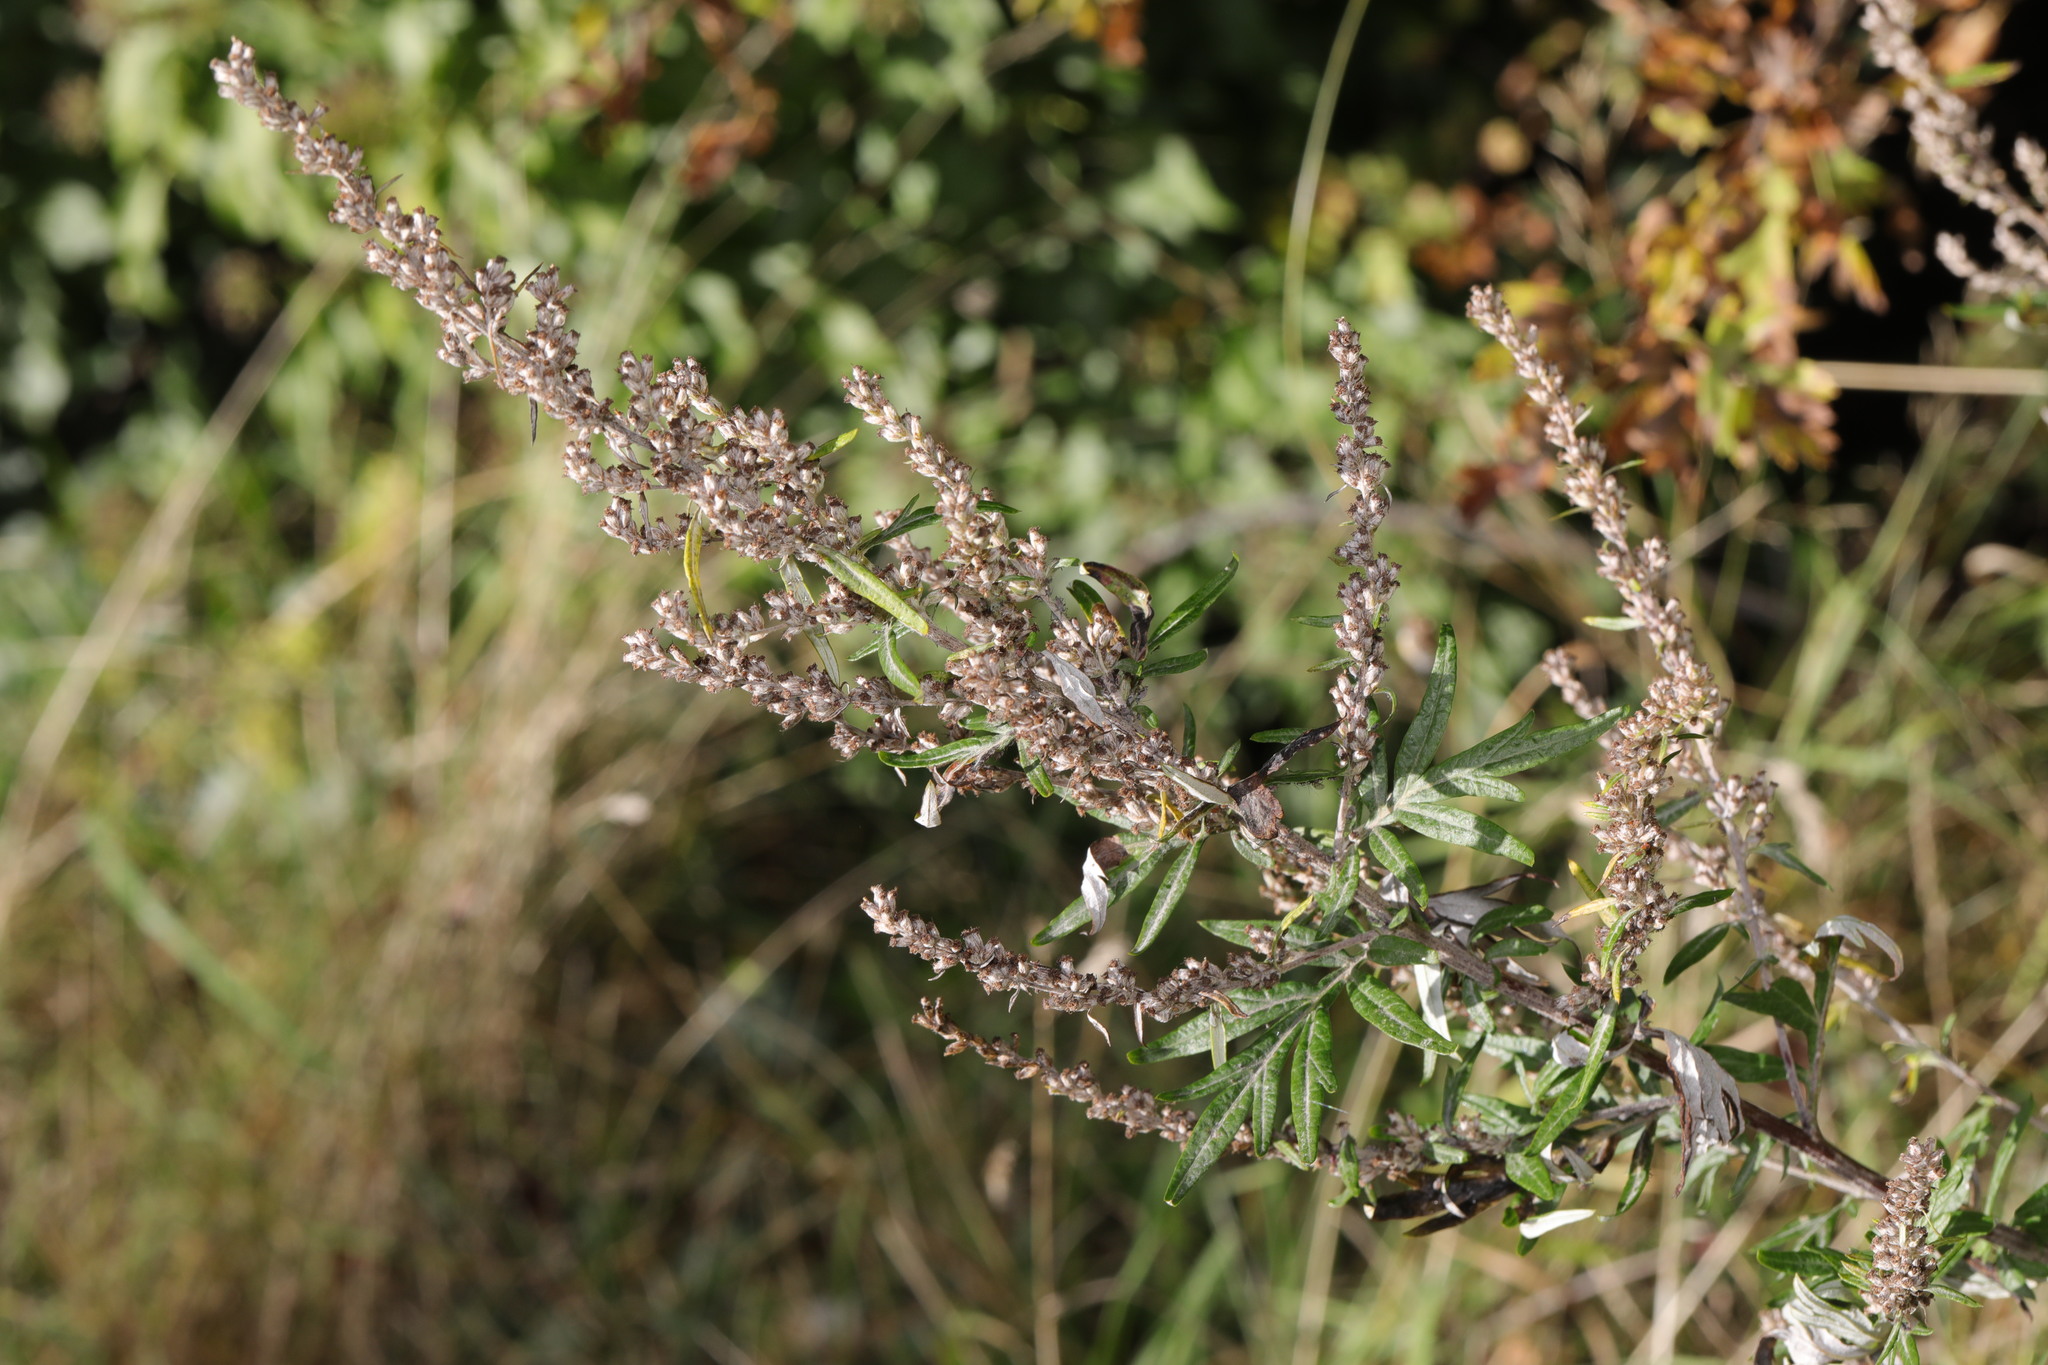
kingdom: Plantae
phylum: Tracheophyta
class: Magnoliopsida
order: Asterales
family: Asteraceae
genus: Artemisia
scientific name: Artemisia vulgaris
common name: Mugwort
